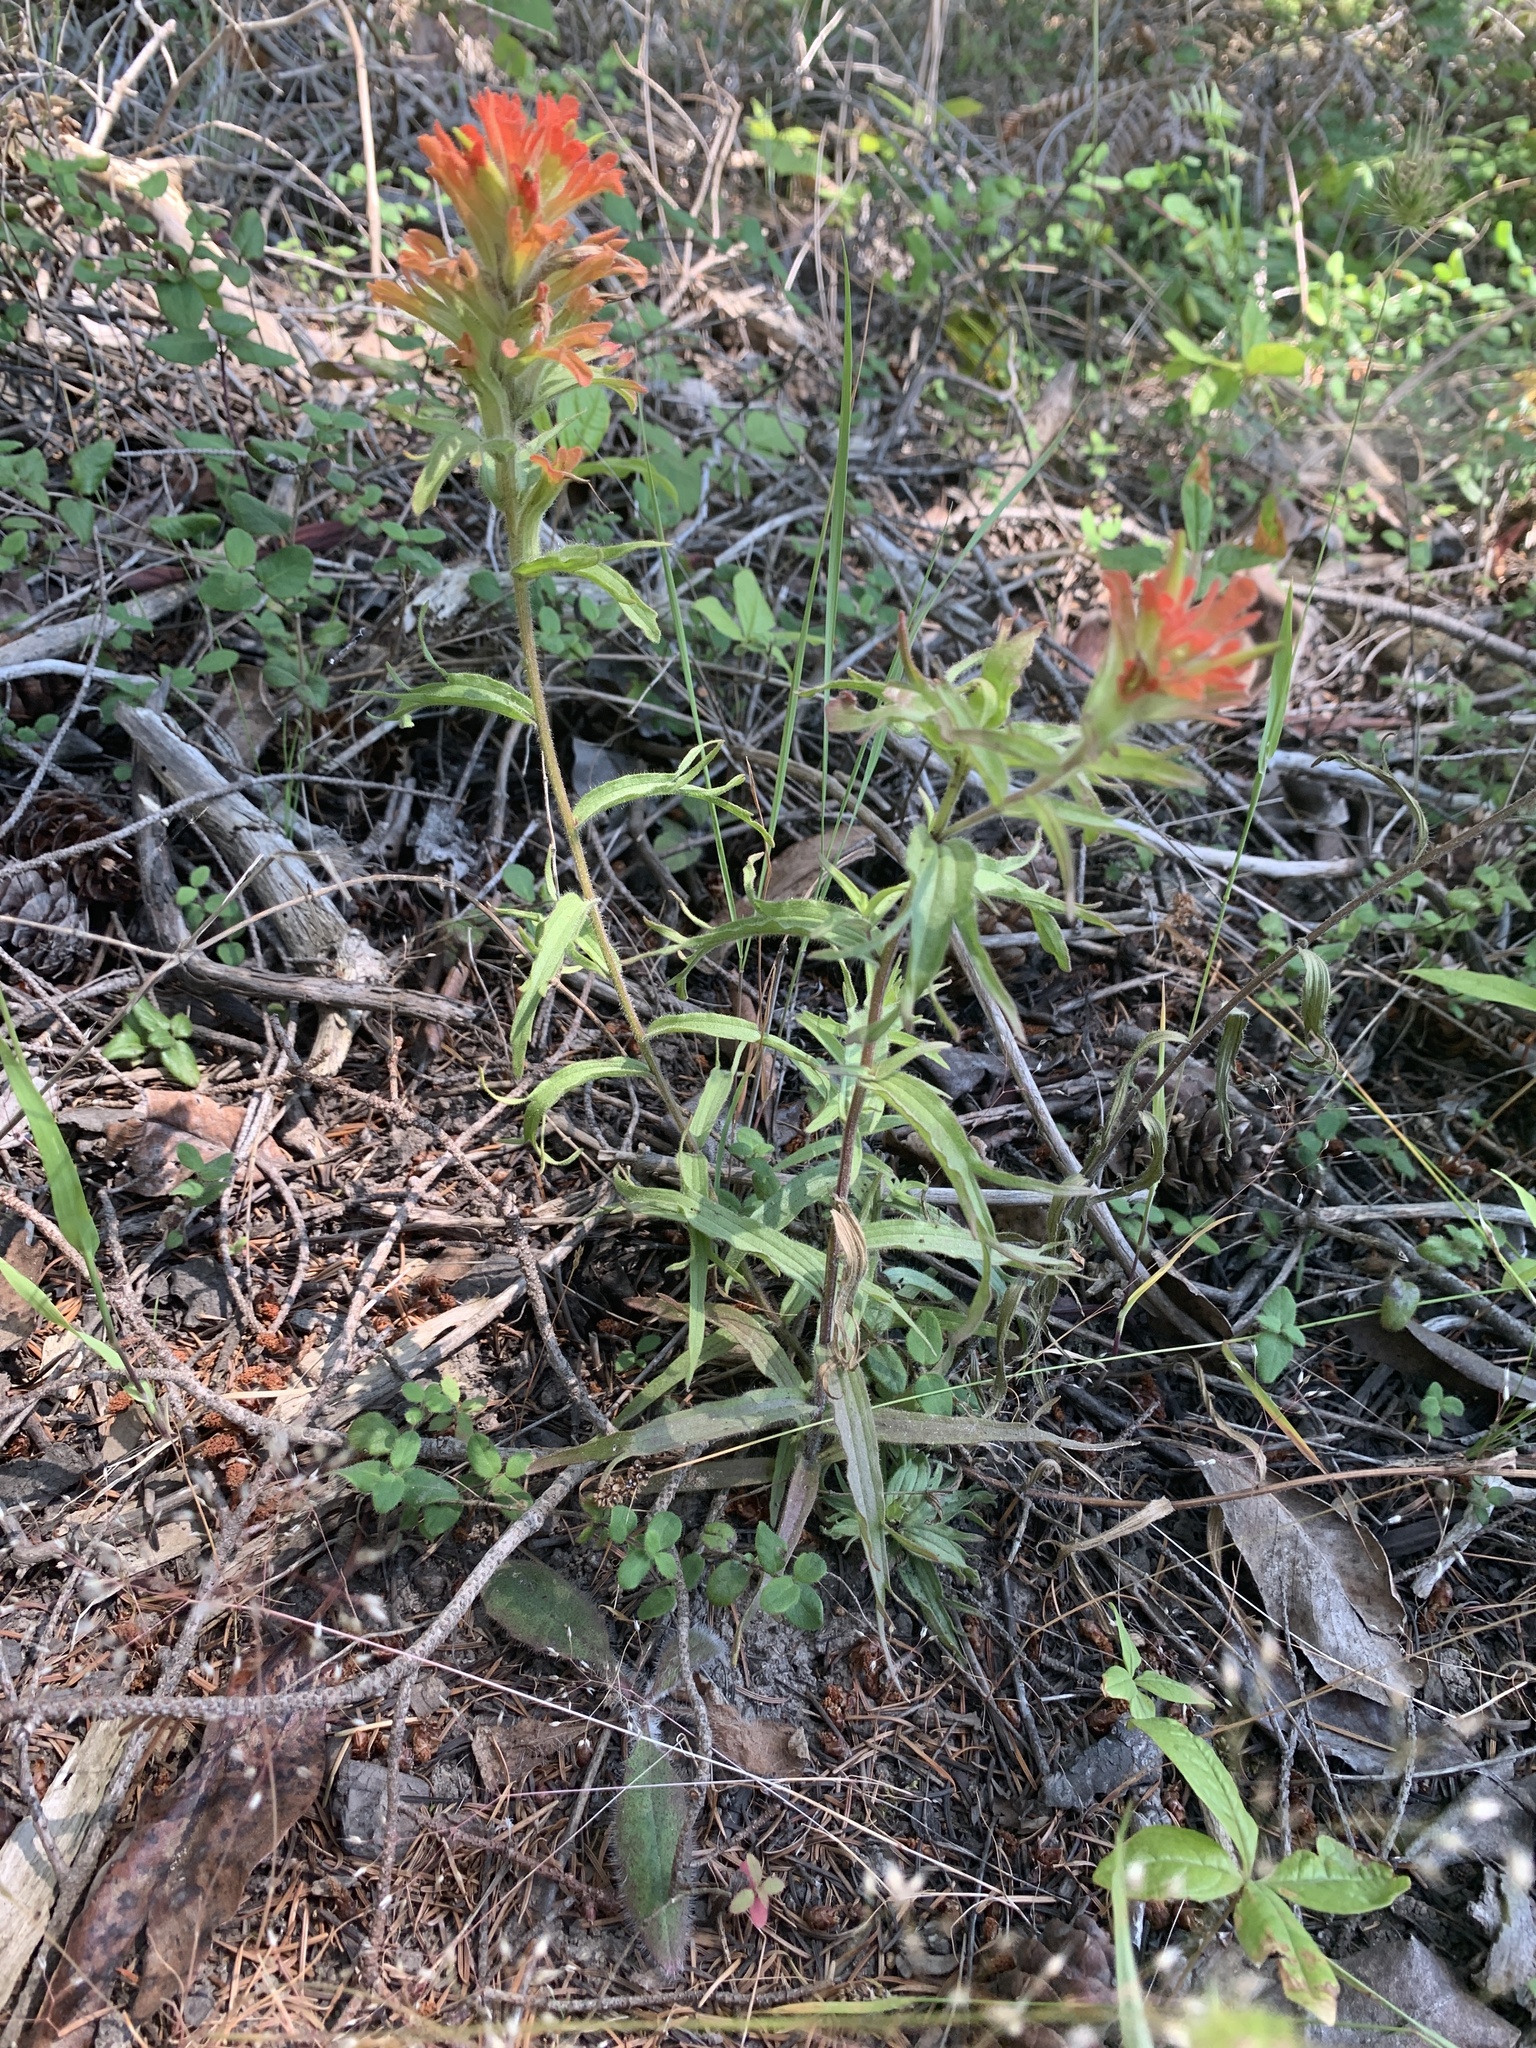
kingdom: Plantae
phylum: Tracheophyta
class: Magnoliopsida
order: Lamiales
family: Orobanchaceae
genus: Castilleja
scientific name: Castilleja hispida
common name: Bristly paintbrush
